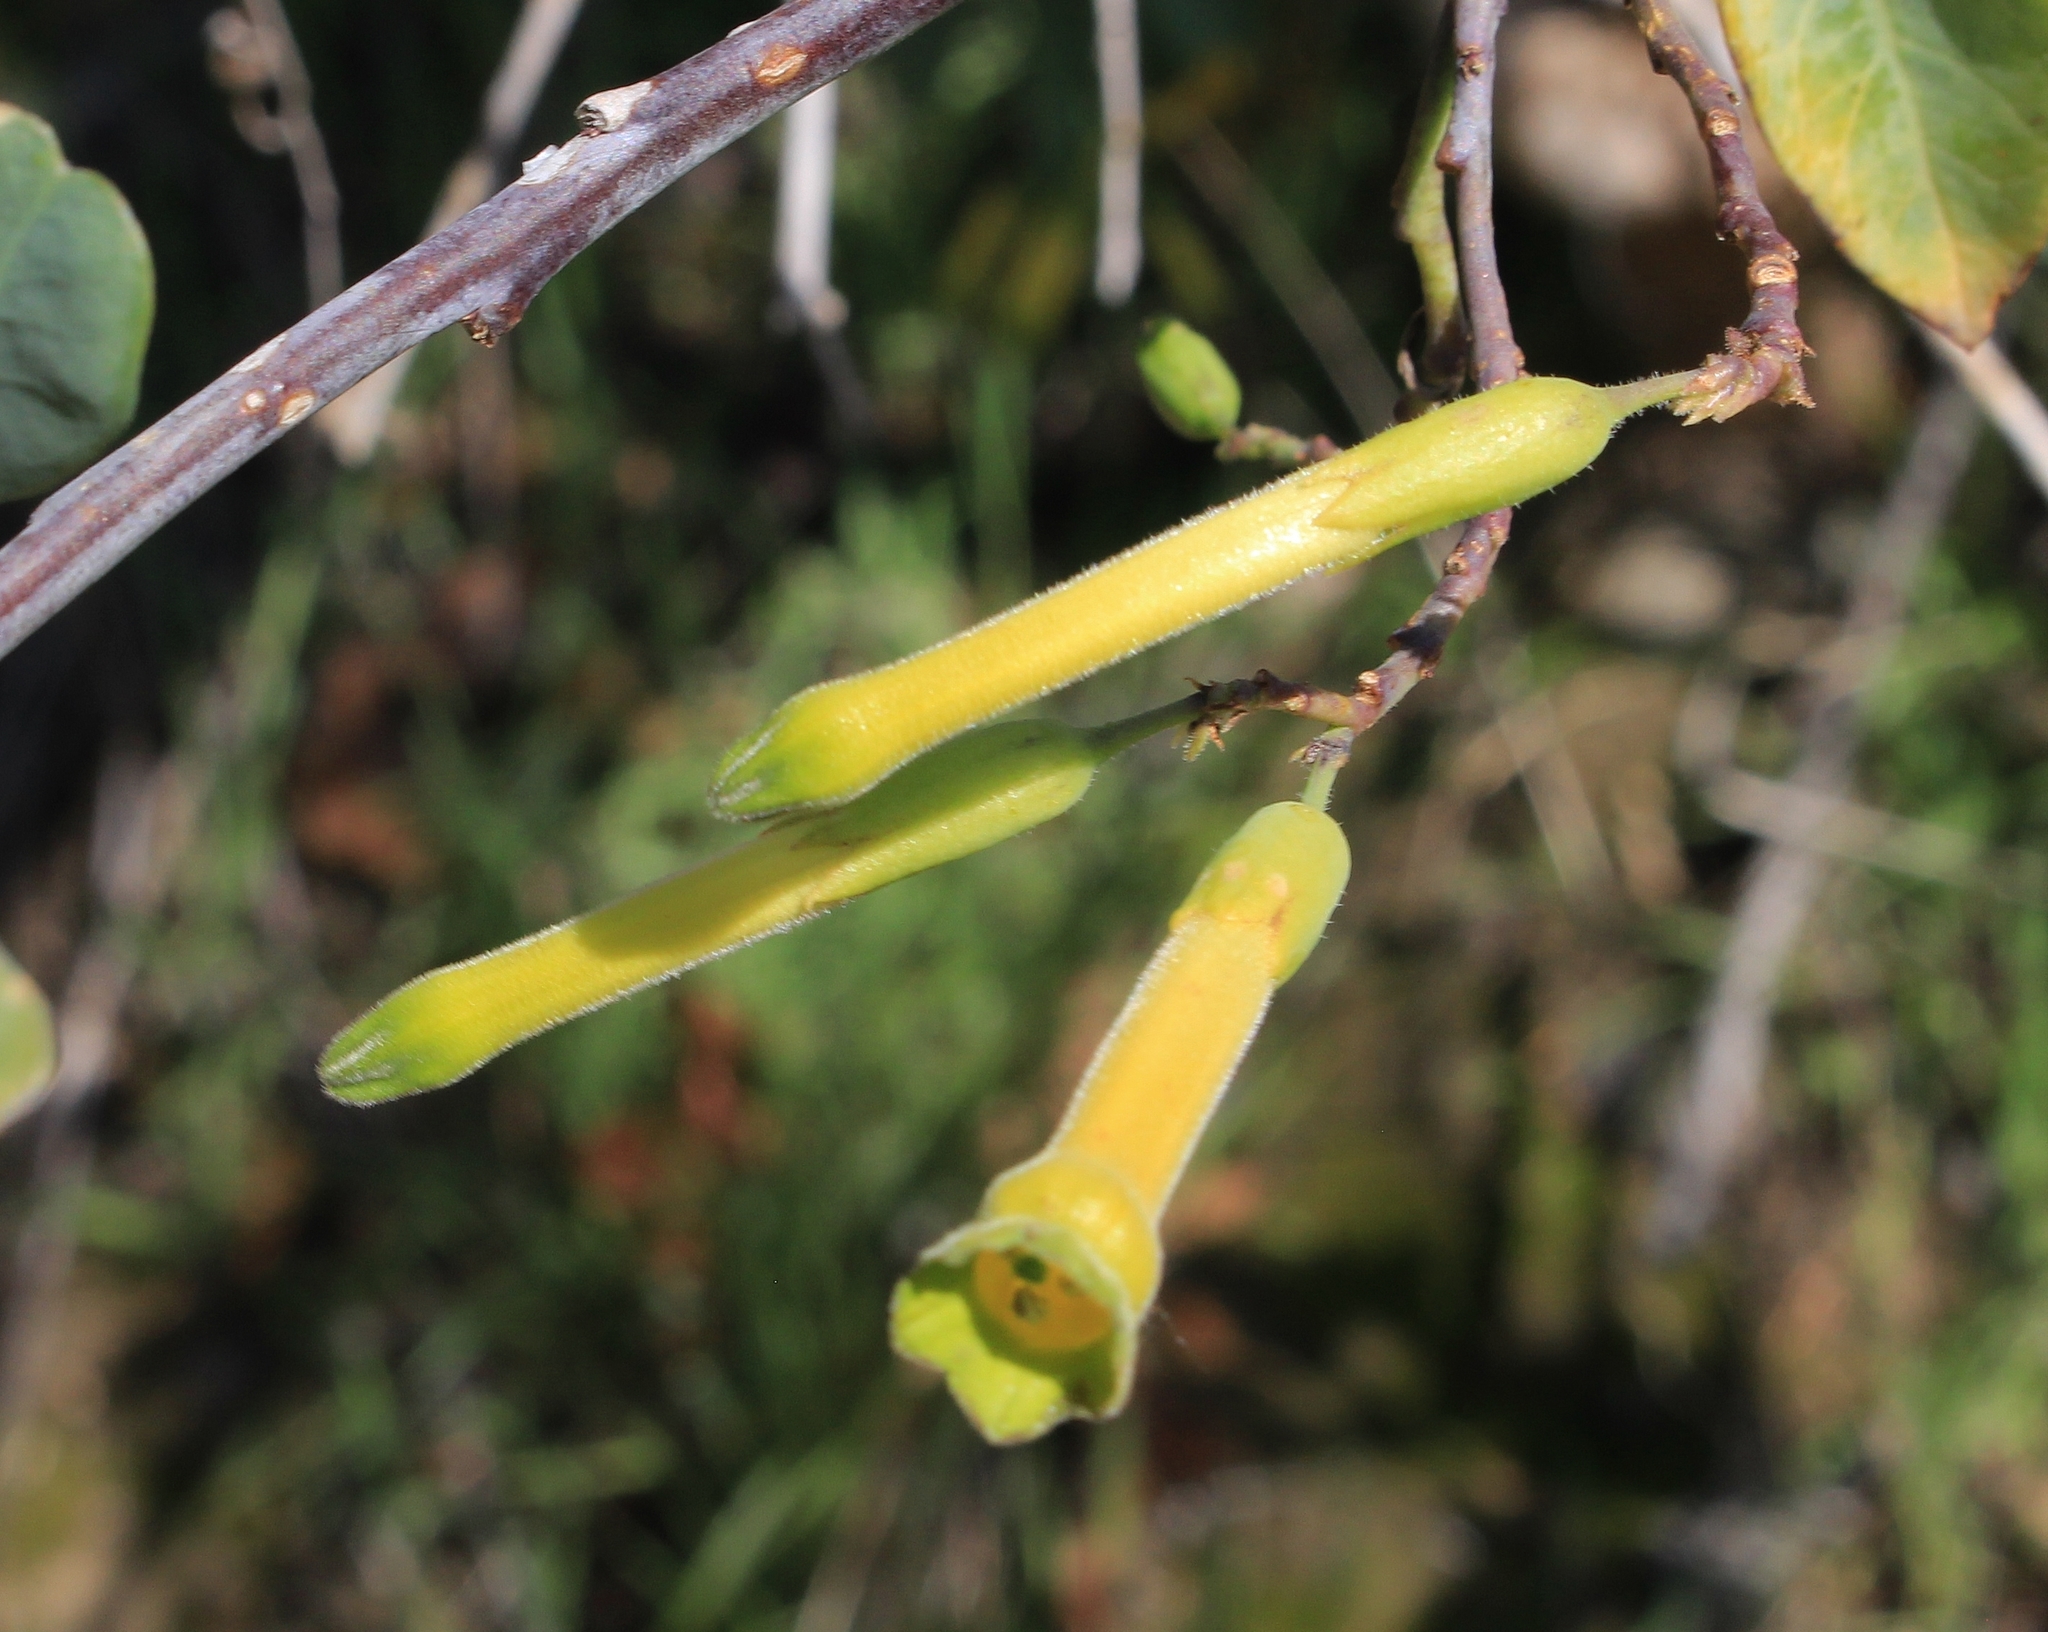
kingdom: Plantae
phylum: Tracheophyta
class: Magnoliopsida
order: Solanales
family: Solanaceae
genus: Nicotiana
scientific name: Nicotiana glauca
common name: Tree tobacco
